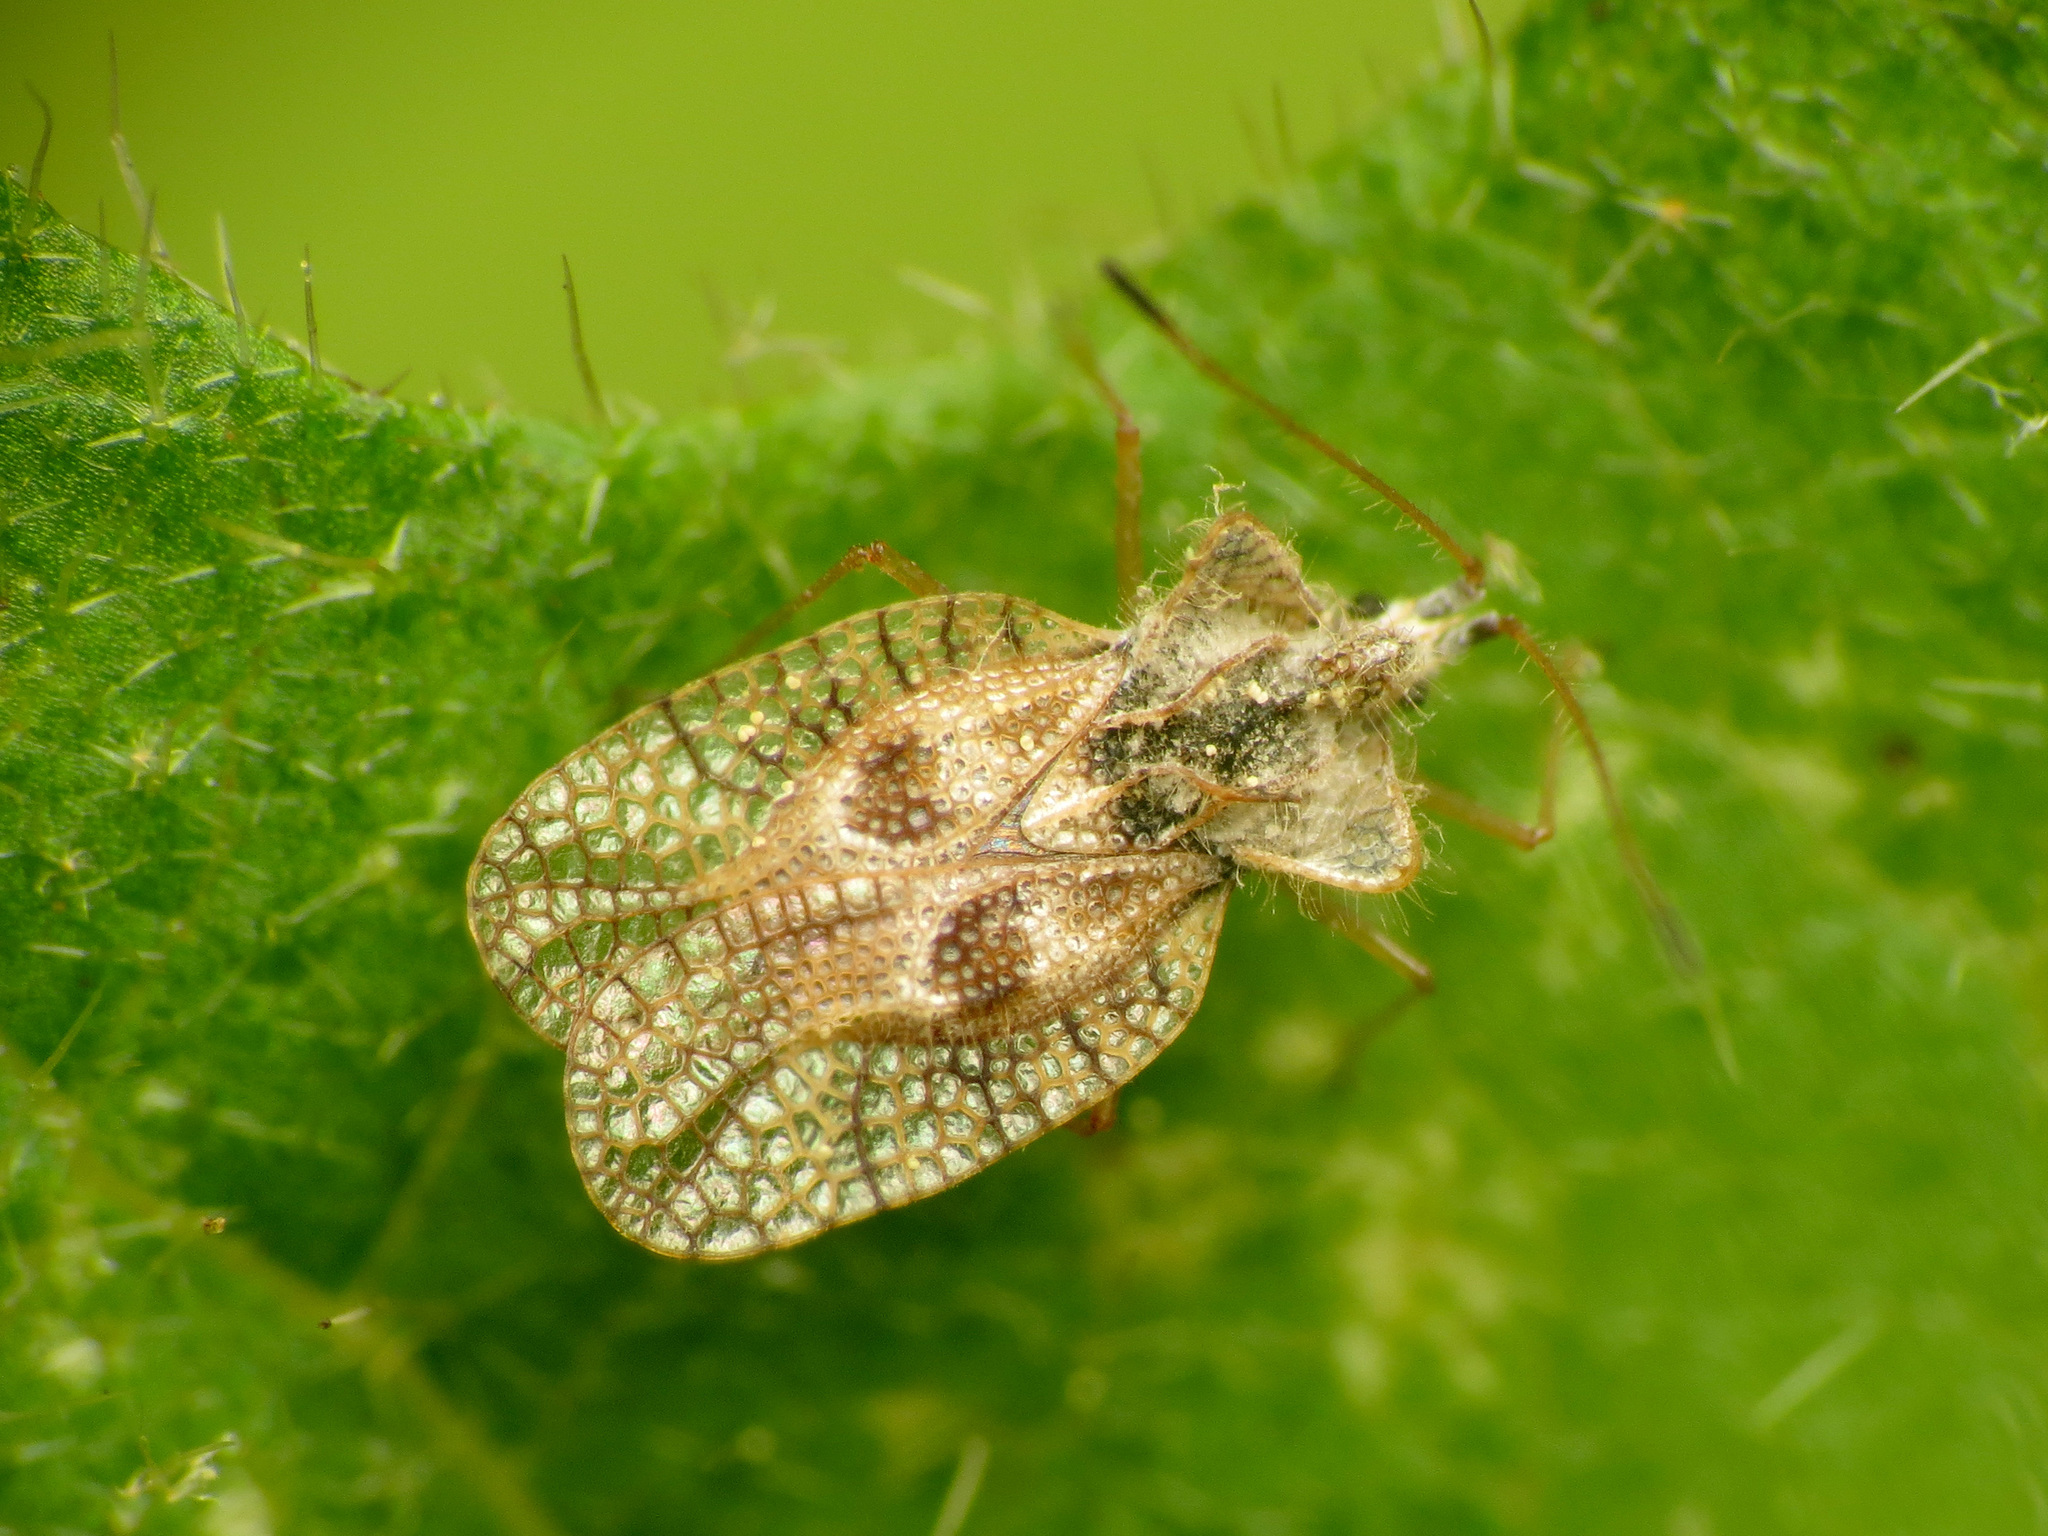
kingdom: Animalia
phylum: Arthropoda
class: Insecta
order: Hemiptera
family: Tingidae
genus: Gargaphia
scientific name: Gargaphia solani
